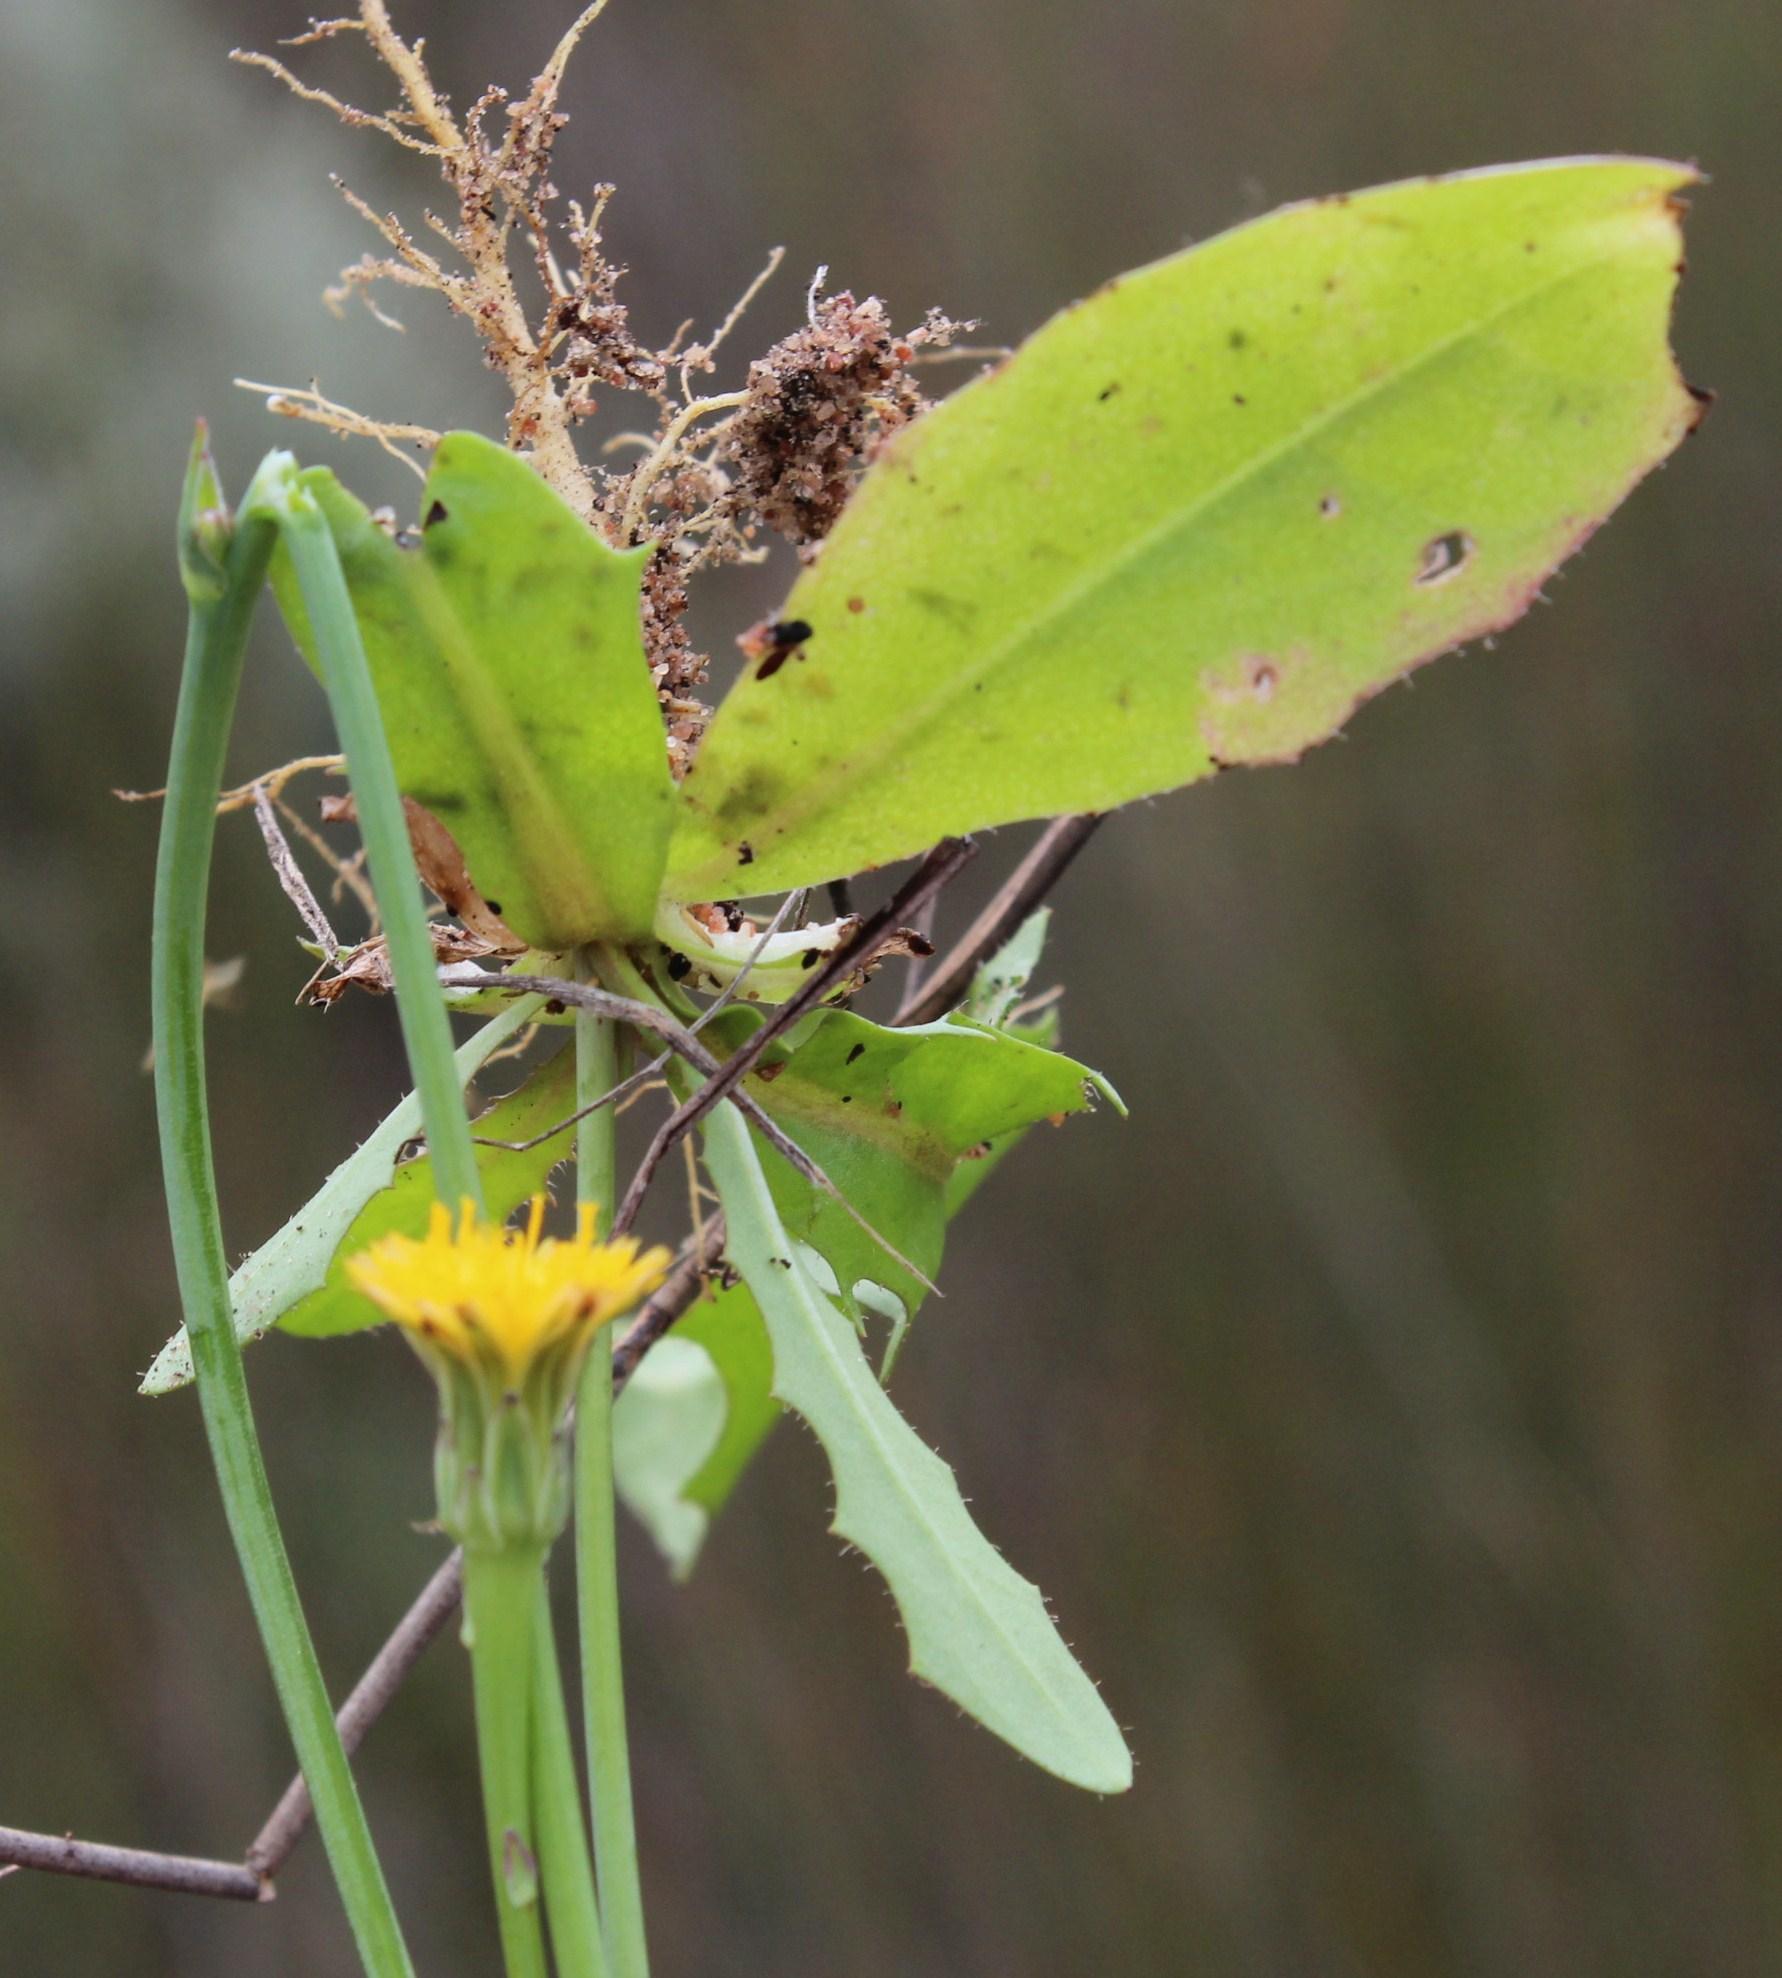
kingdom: Plantae
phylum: Tracheophyta
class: Magnoliopsida
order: Asterales
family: Asteraceae
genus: Hypochaeris
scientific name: Hypochaeris radicata
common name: Flatweed
